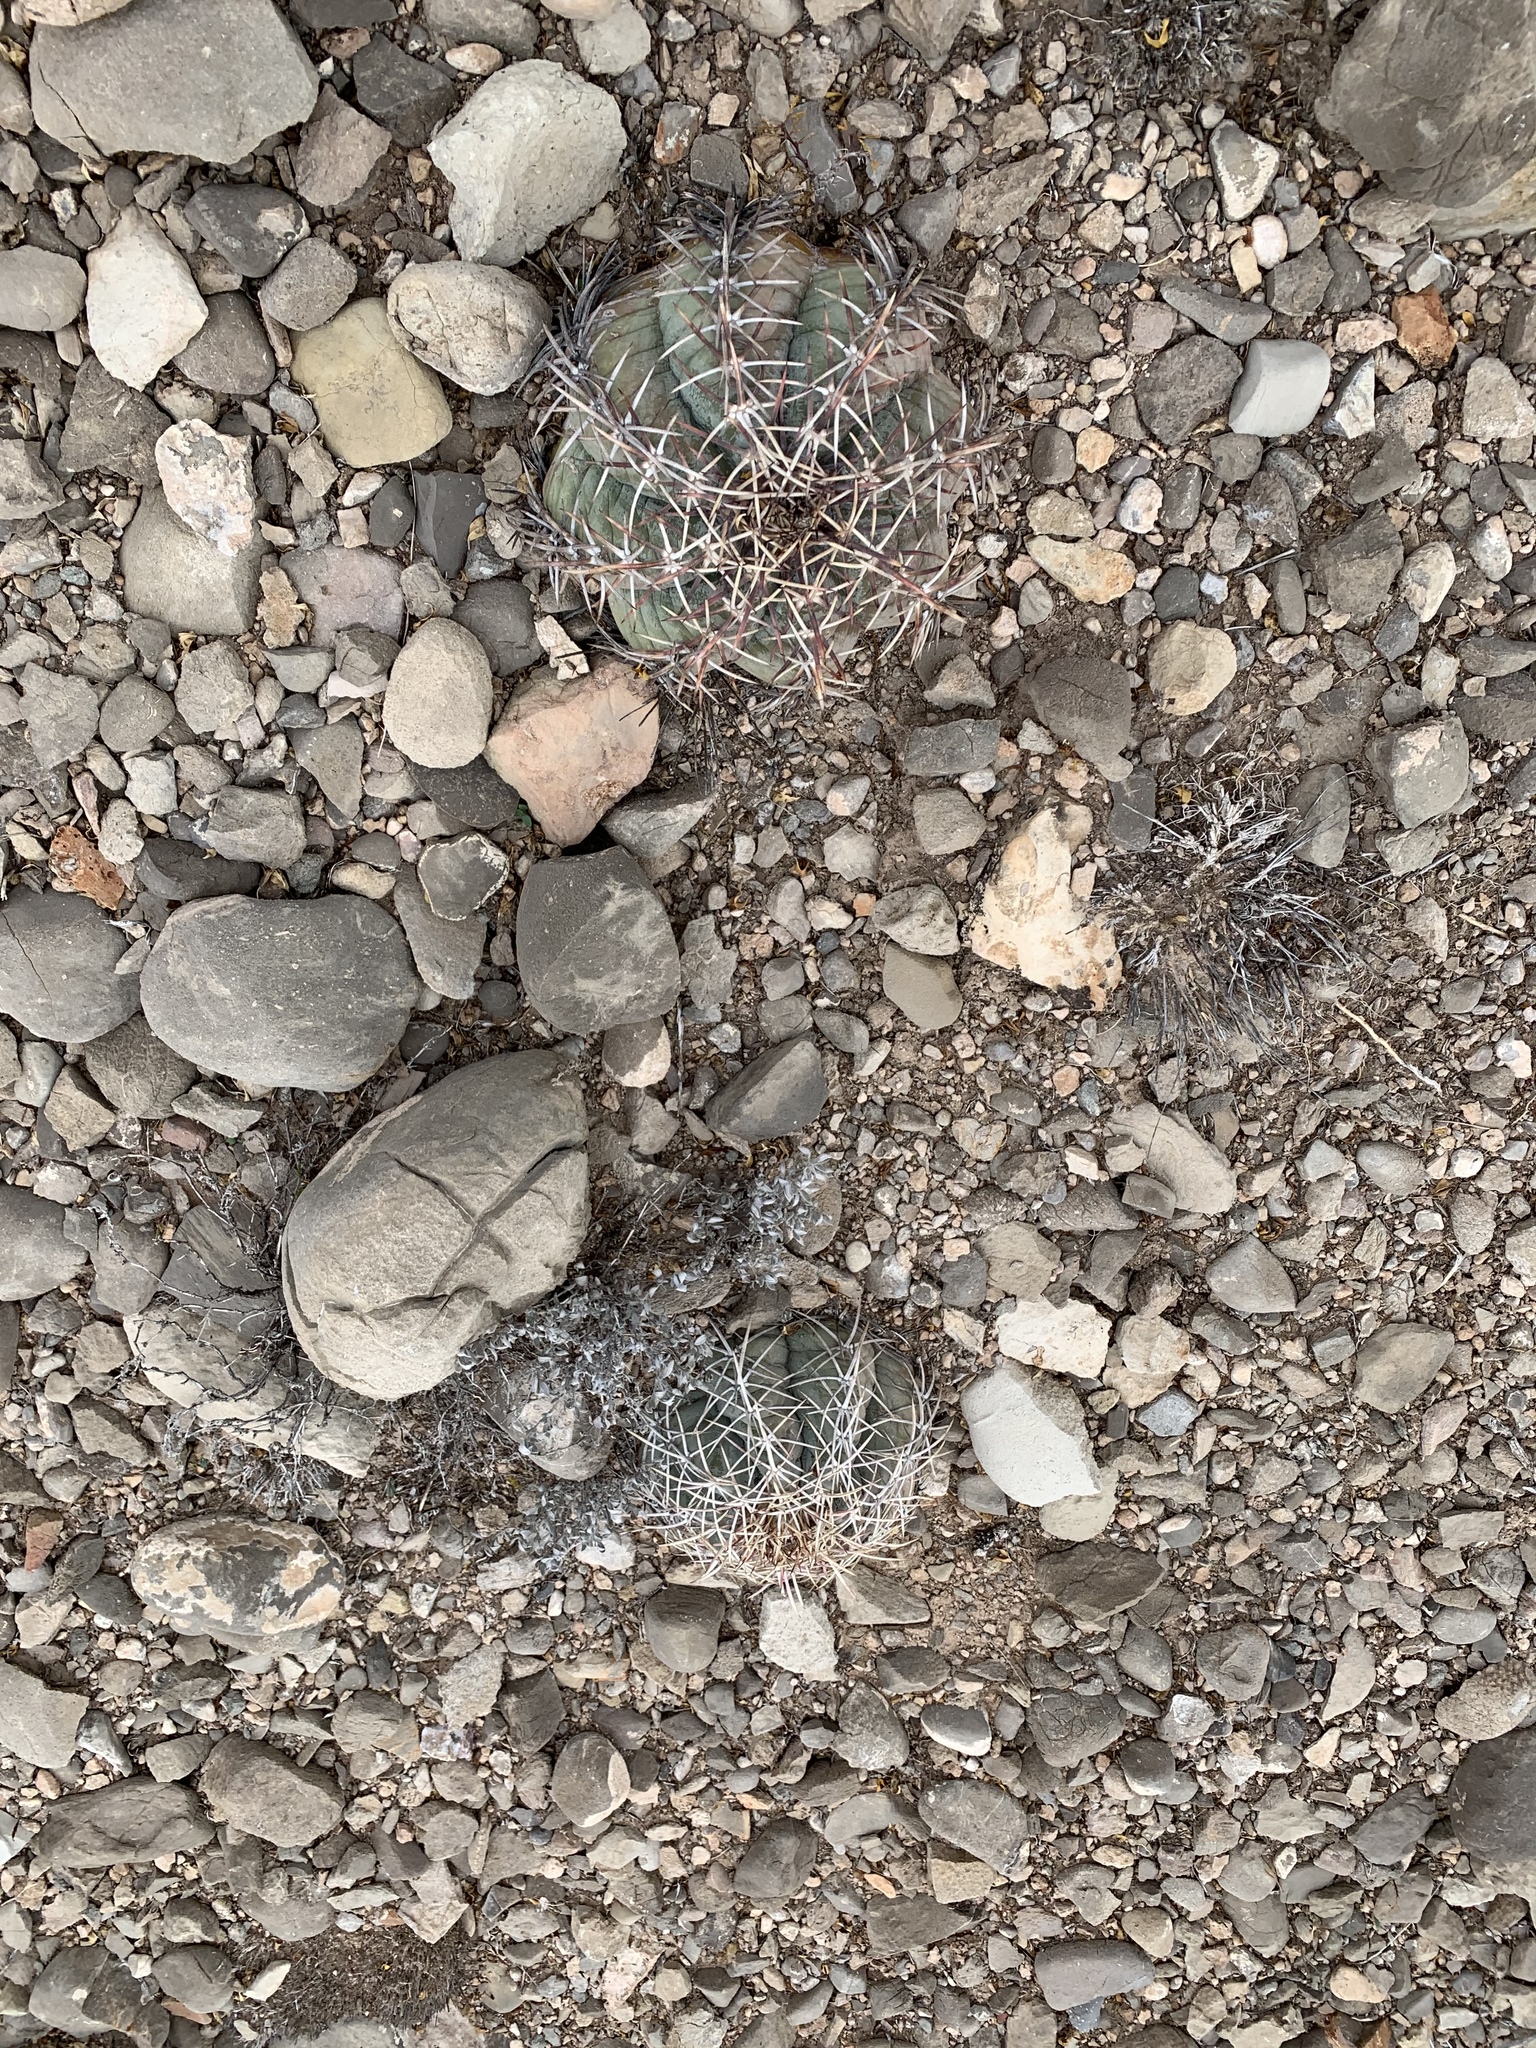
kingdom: Plantae
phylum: Tracheophyta
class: Magnoliopsida
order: Caryophyllales
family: Cactaceae
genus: Echinocactus
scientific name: Echinocactus horizonthalonius
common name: Devilshead
